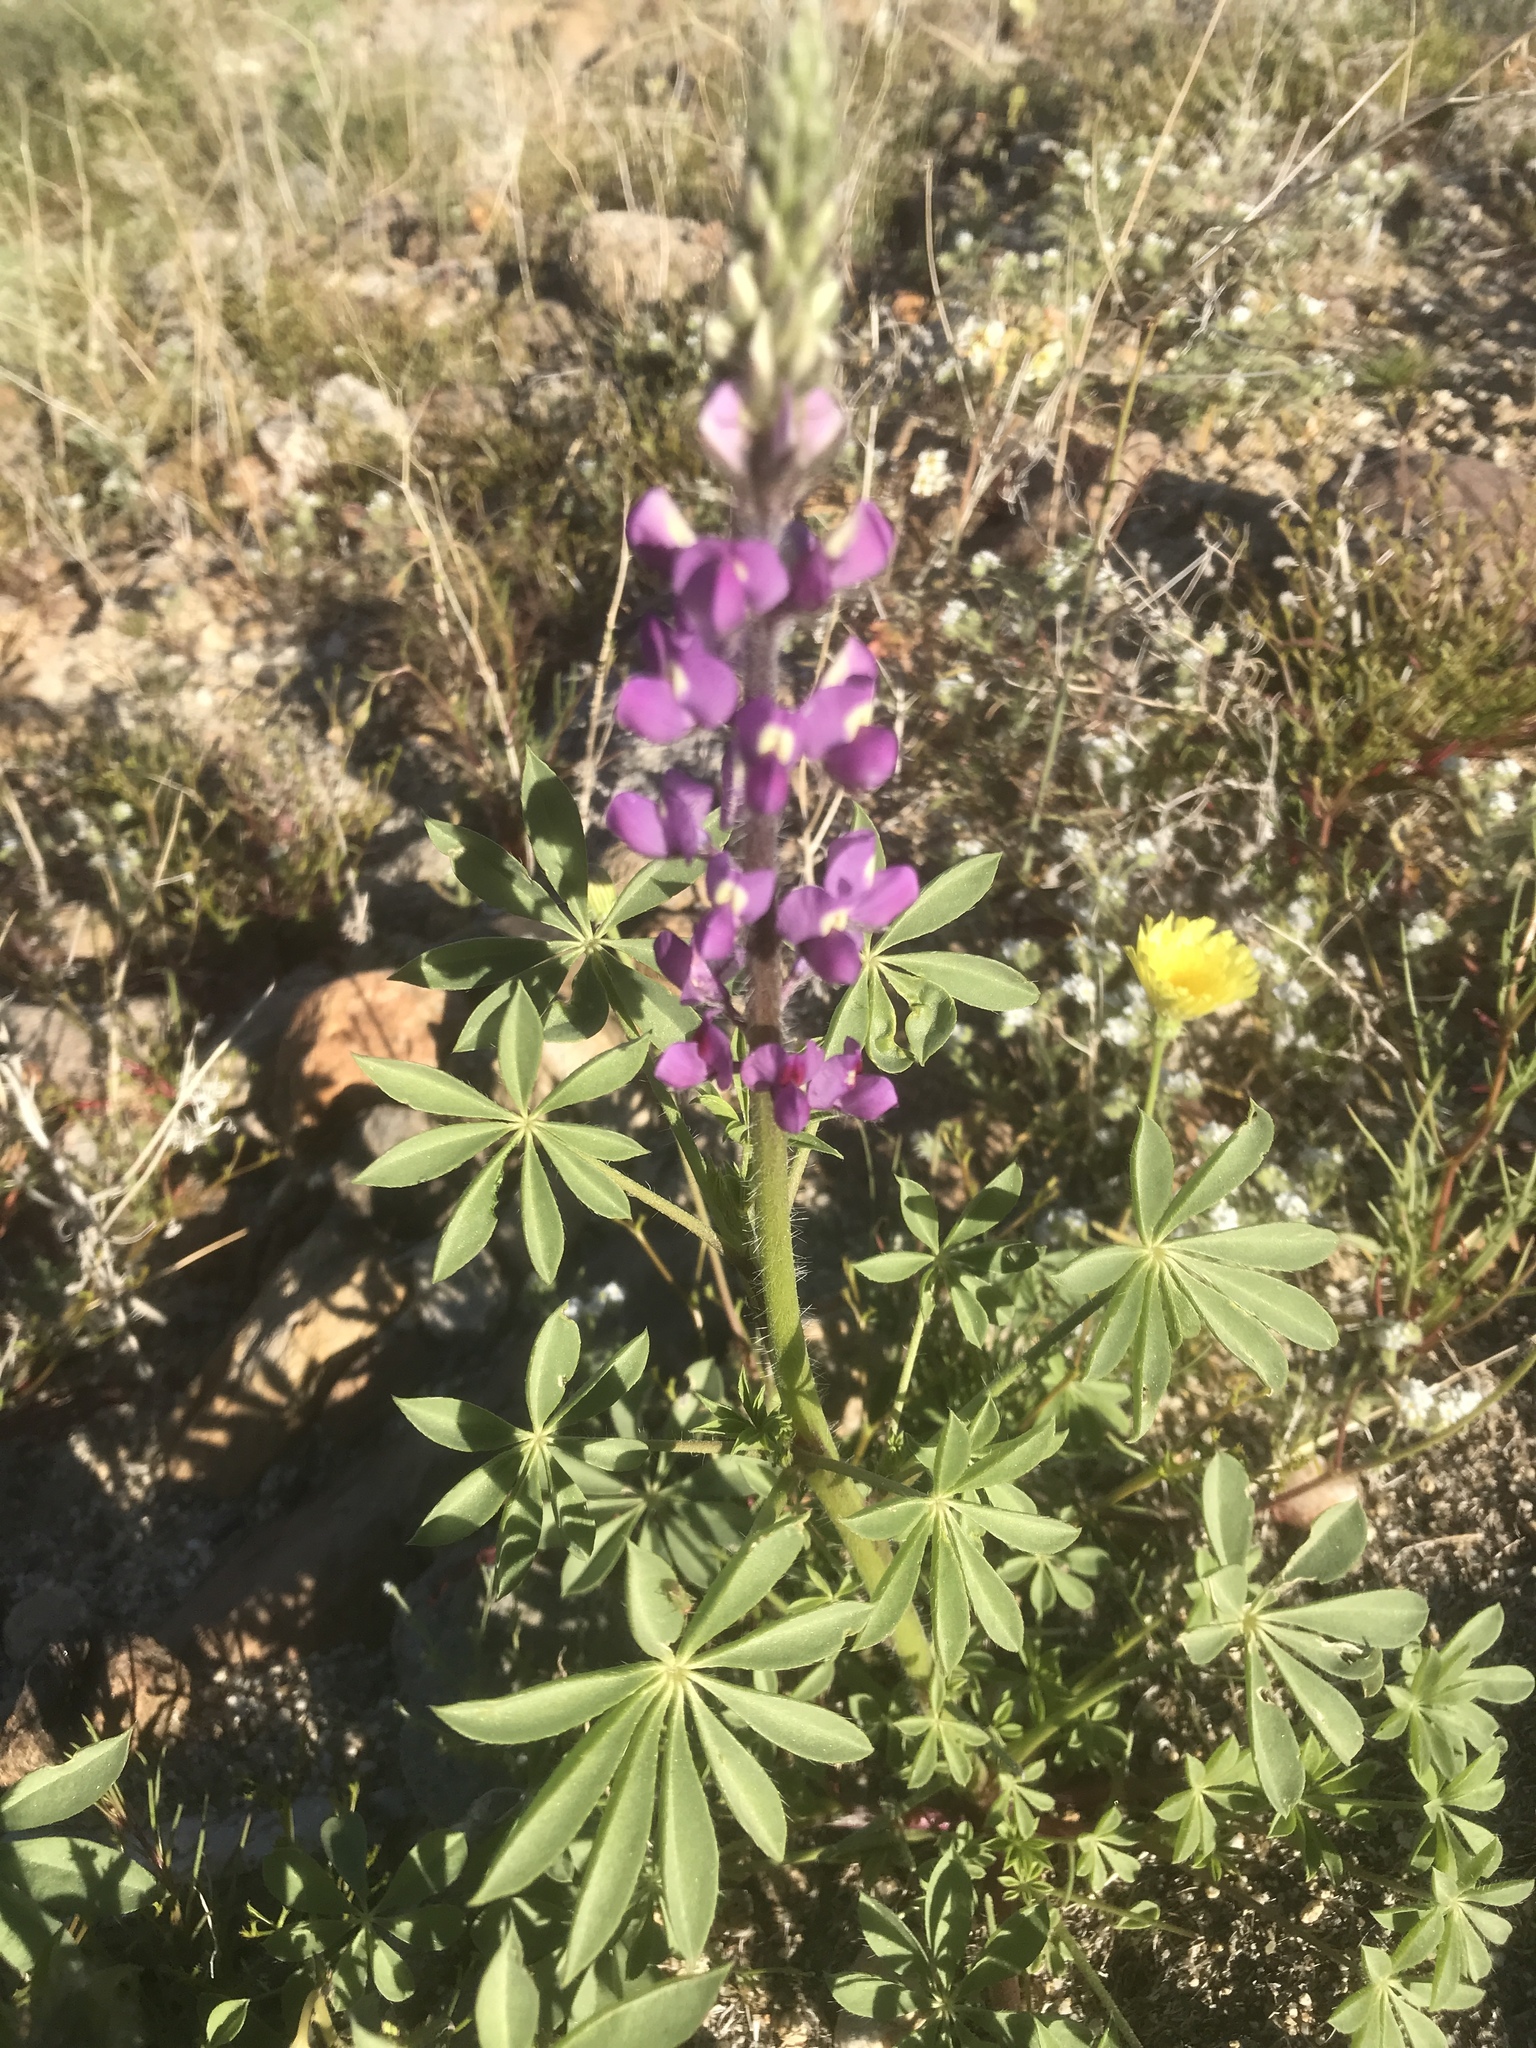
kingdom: Plantae
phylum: Tracheophyta
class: Magnoliopsida
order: Fabales
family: Fabaceae
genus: Lupinus
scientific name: Lupinus arizonicus
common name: Arizona lupine
